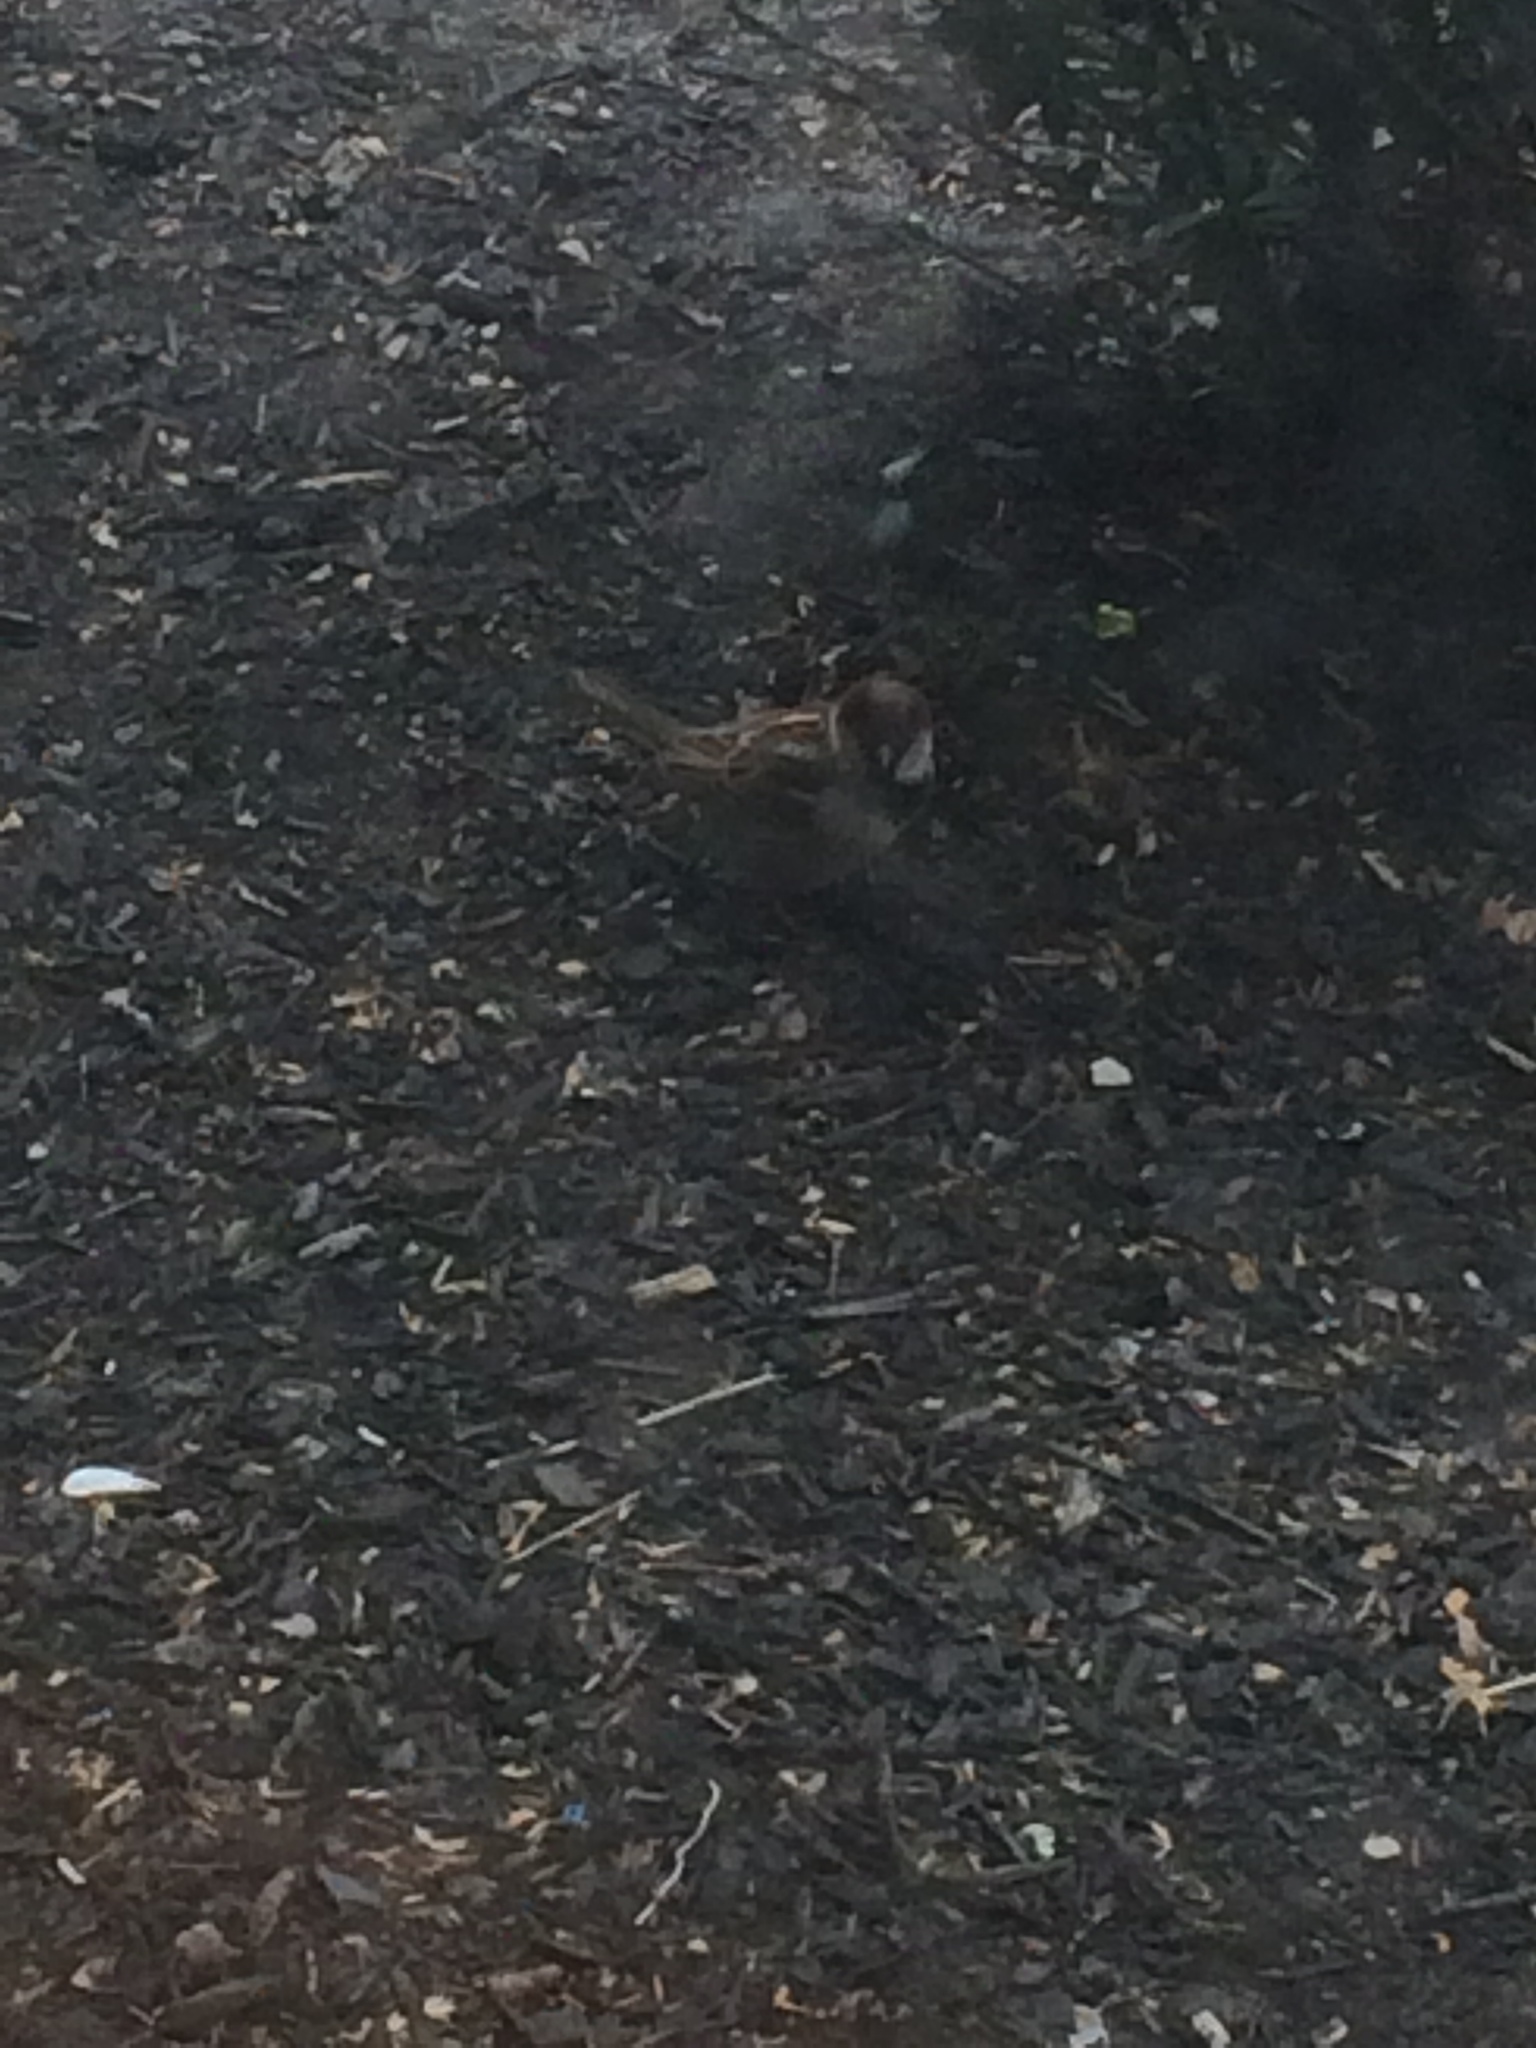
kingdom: Animalia
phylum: Chordata
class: Aves
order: Passeriformes
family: Passeridae
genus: Passer
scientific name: Passer domesticus
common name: House sparrow
